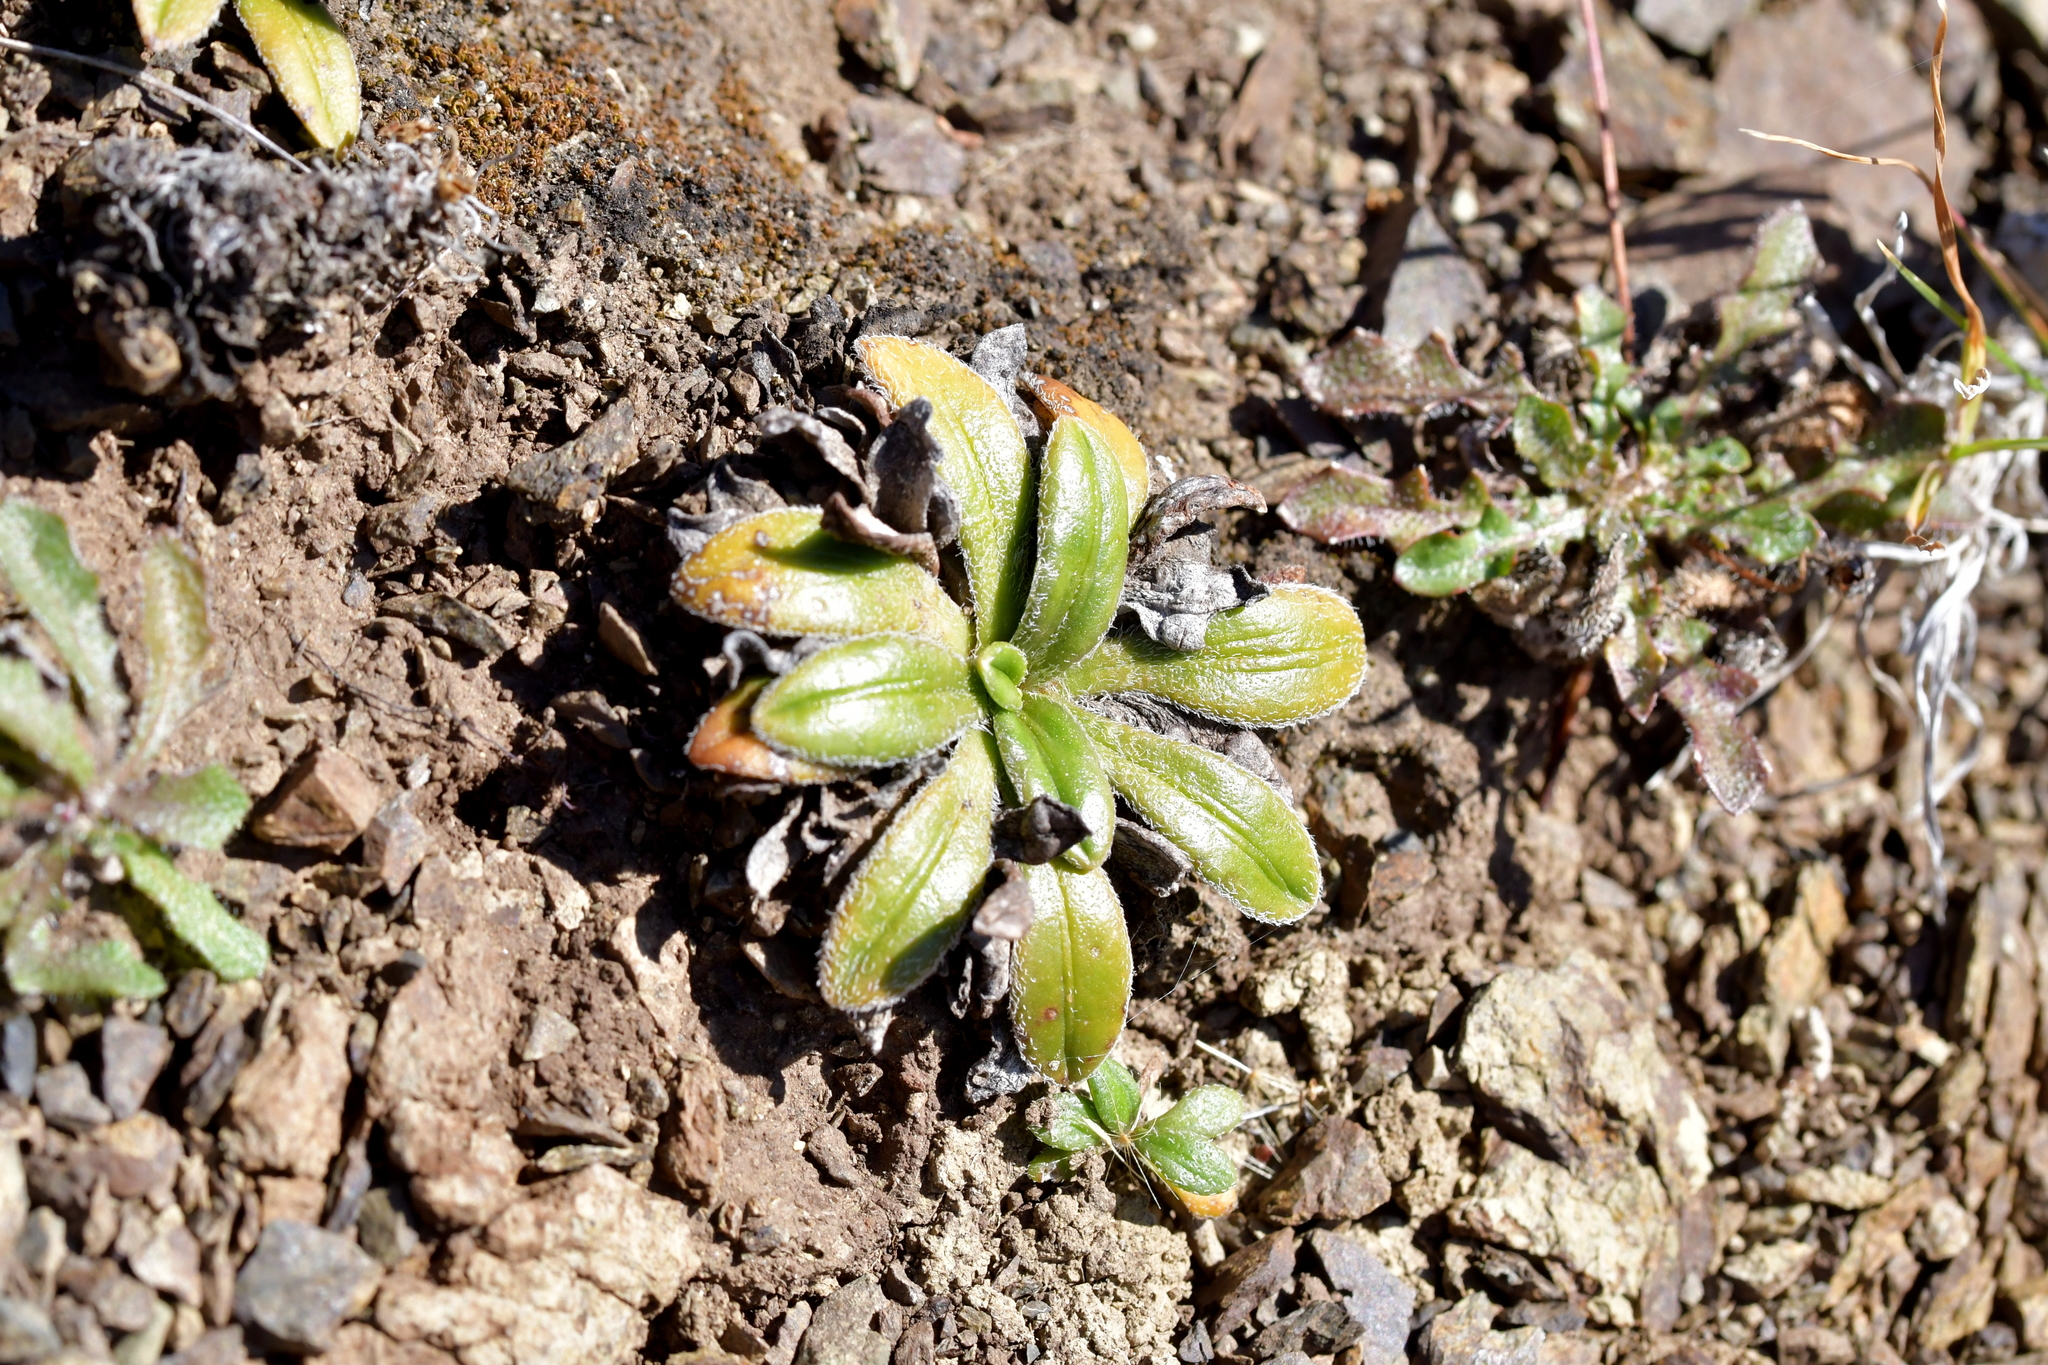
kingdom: Plantae
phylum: Tracheophyta
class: Magnoliopsida
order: Lamiales
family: Plantaginaceae
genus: Plantago
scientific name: Plantago spathulata
